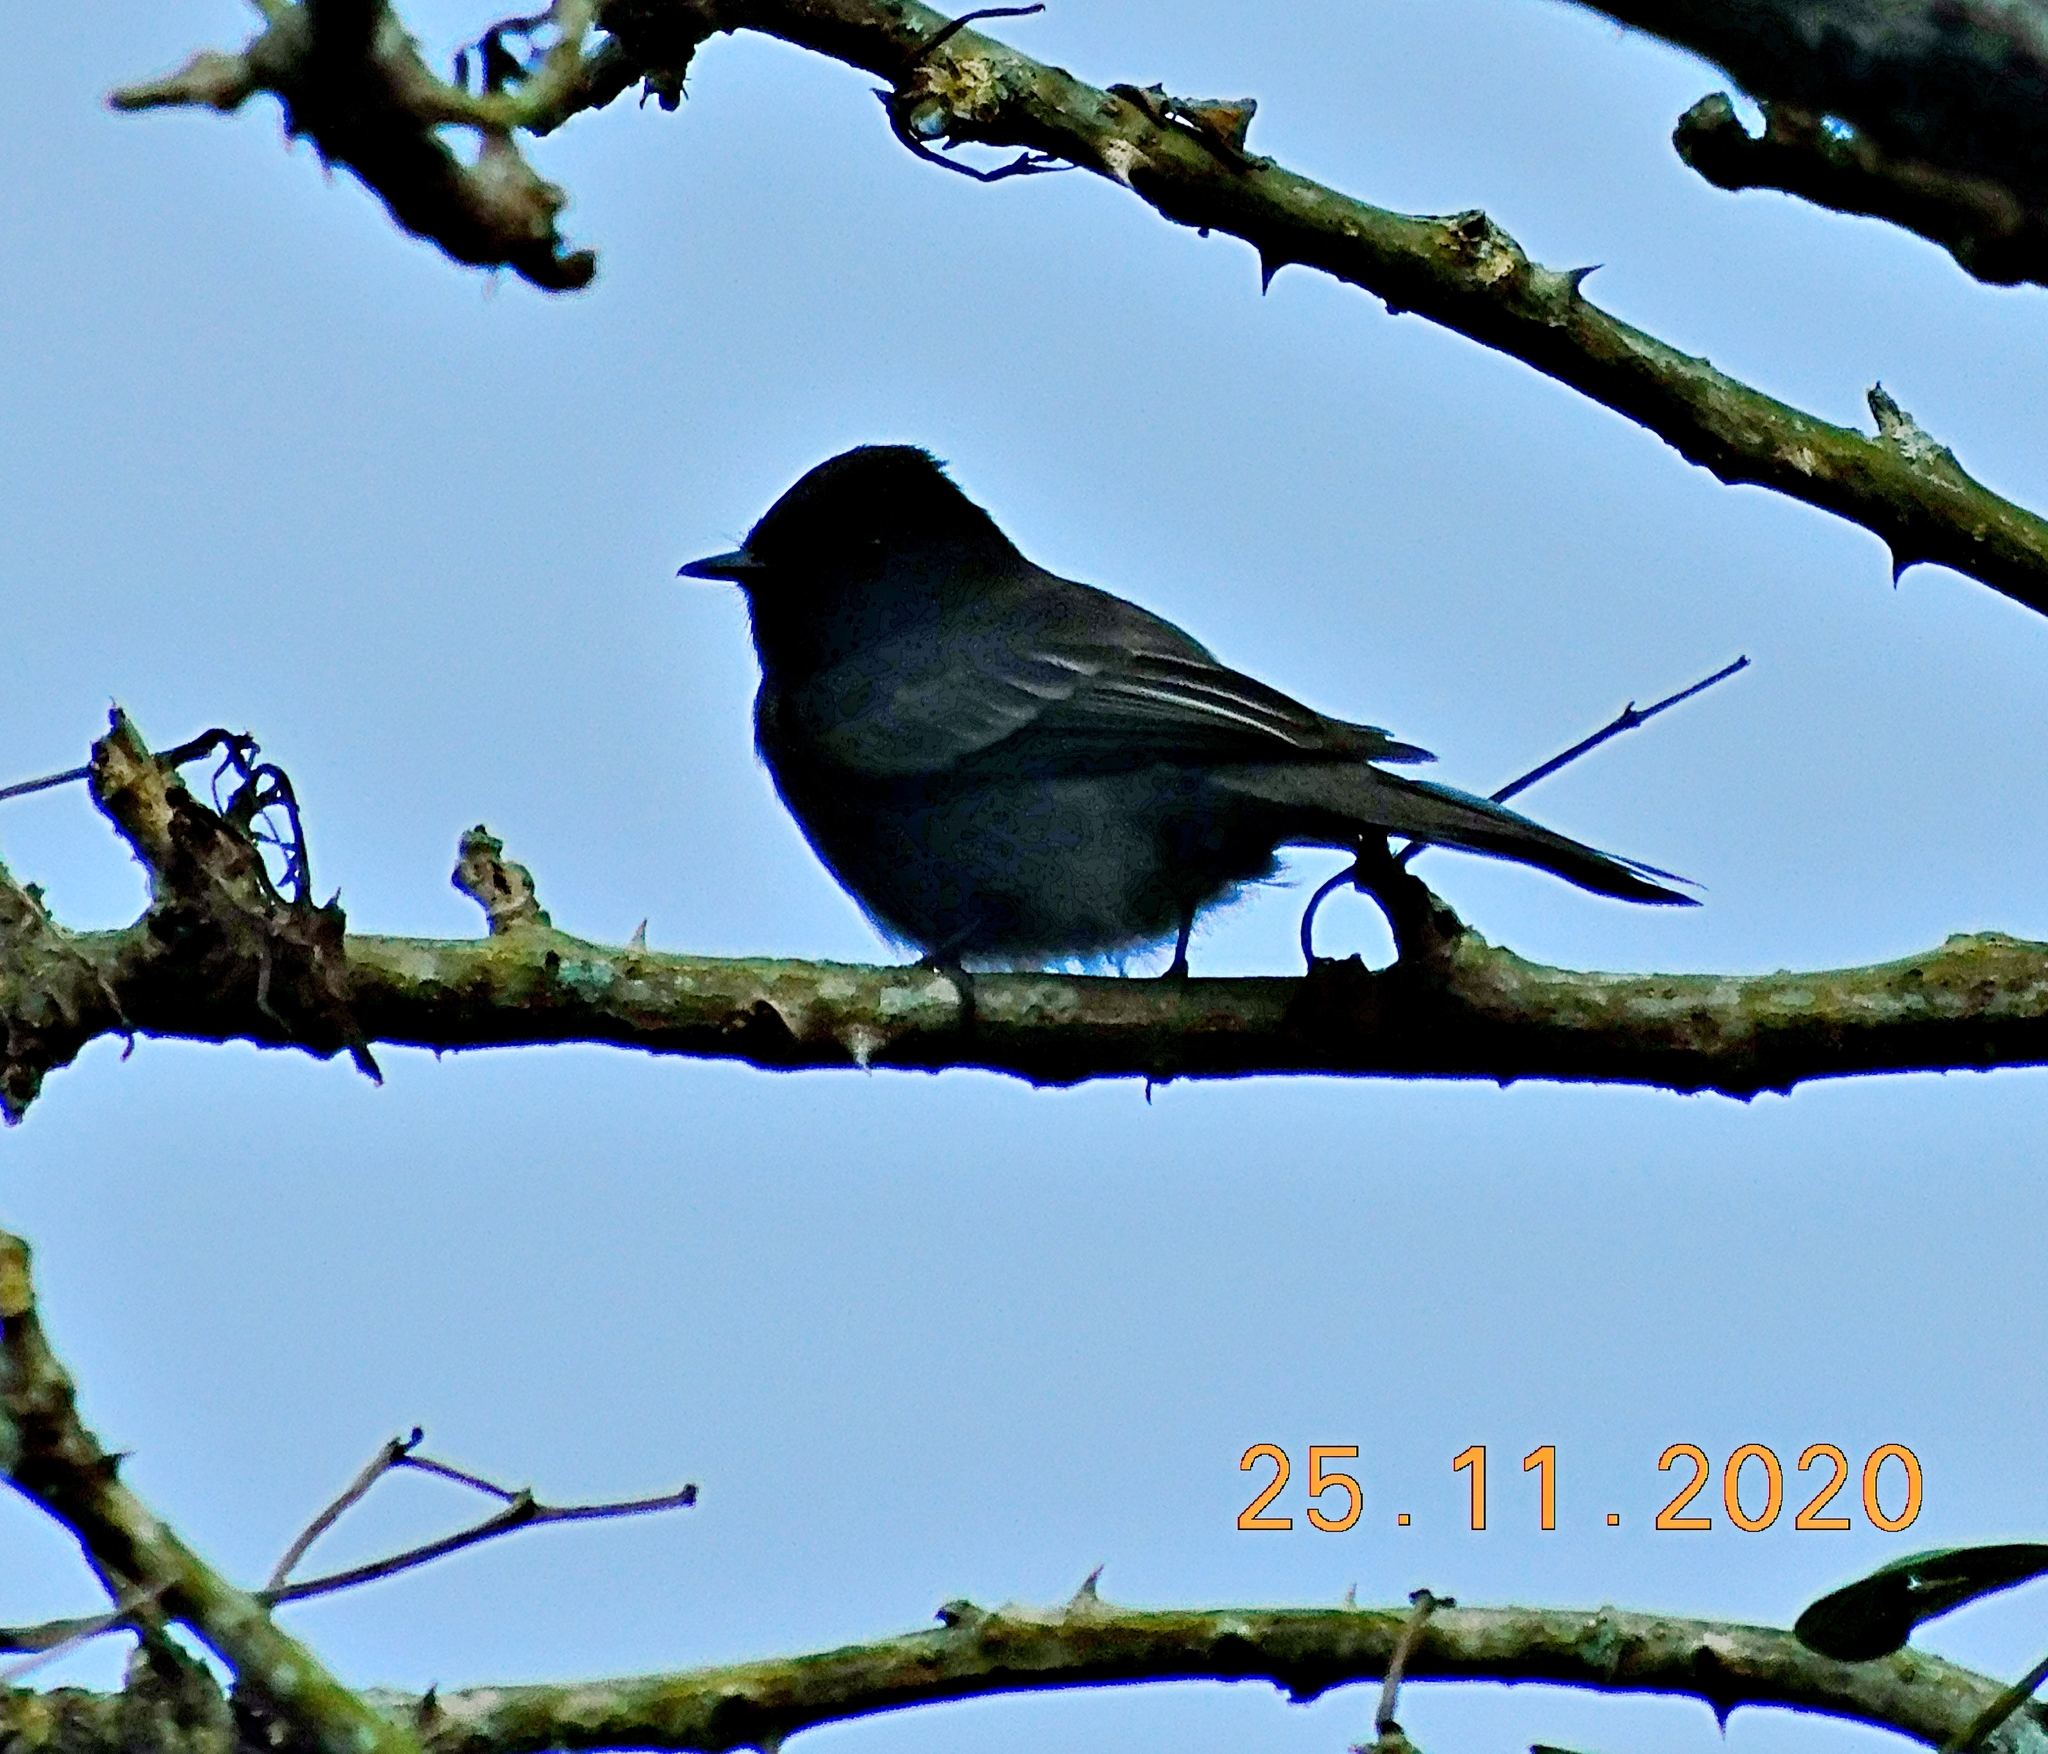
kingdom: Animalia
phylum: Chordata
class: Aves
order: Passeriformes
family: Tyrannidae
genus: Sayornis
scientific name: Sayornis nigricans
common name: Black phoebe
